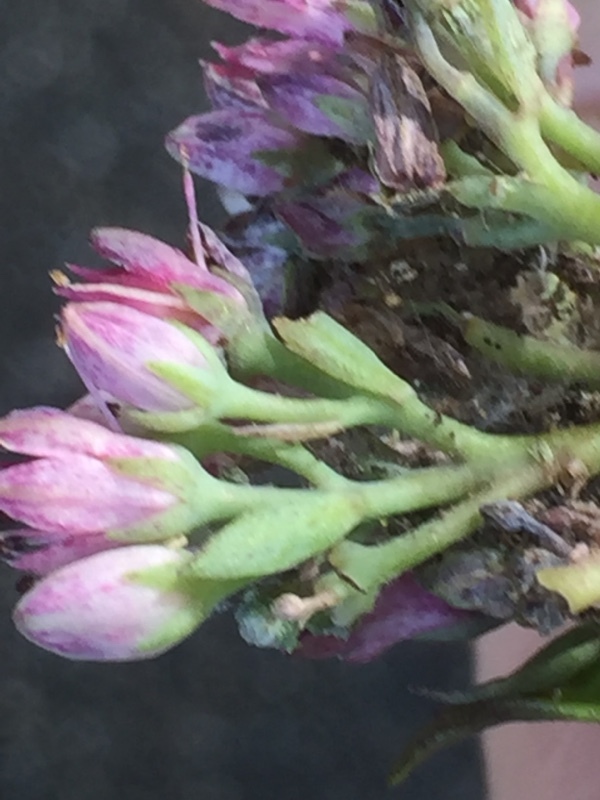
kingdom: Plantae
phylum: Tracheophyta
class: Magnoliopsida
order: Saxifragales
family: Crassulaceae
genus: Hylotelephium
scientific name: Hylotelephium telephium
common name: Live-forever
